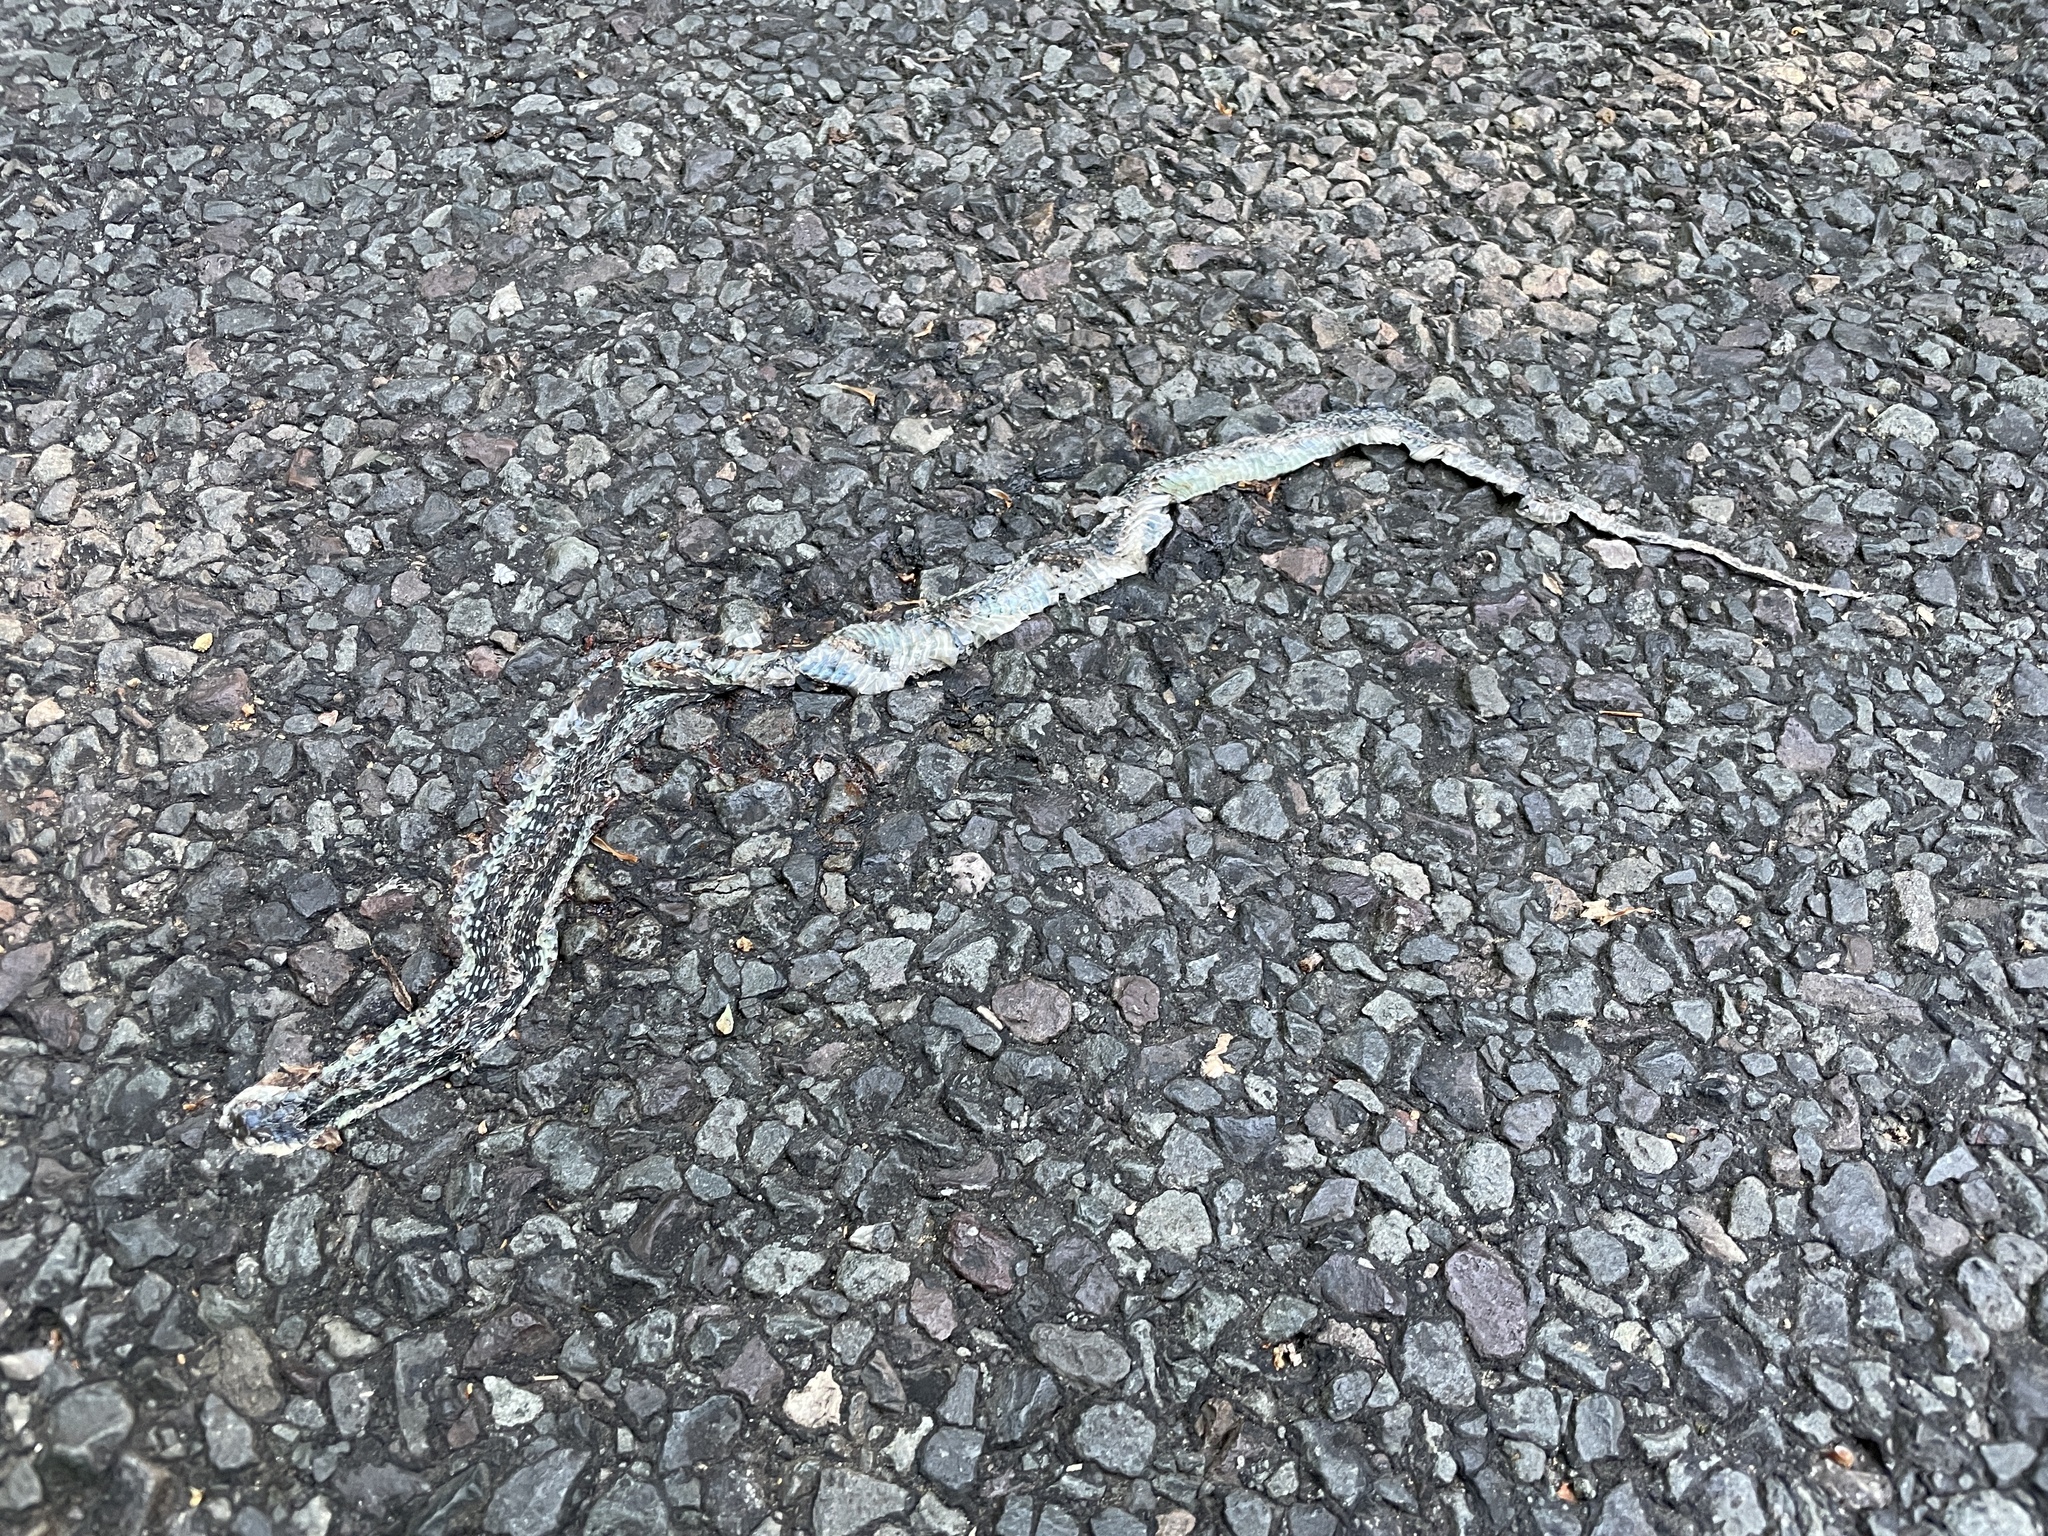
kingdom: Animalia
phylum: Chordata
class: Squamata
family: Colubridae
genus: Thamnophis
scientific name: Thamnophis sirtalis
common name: Common garter snake
